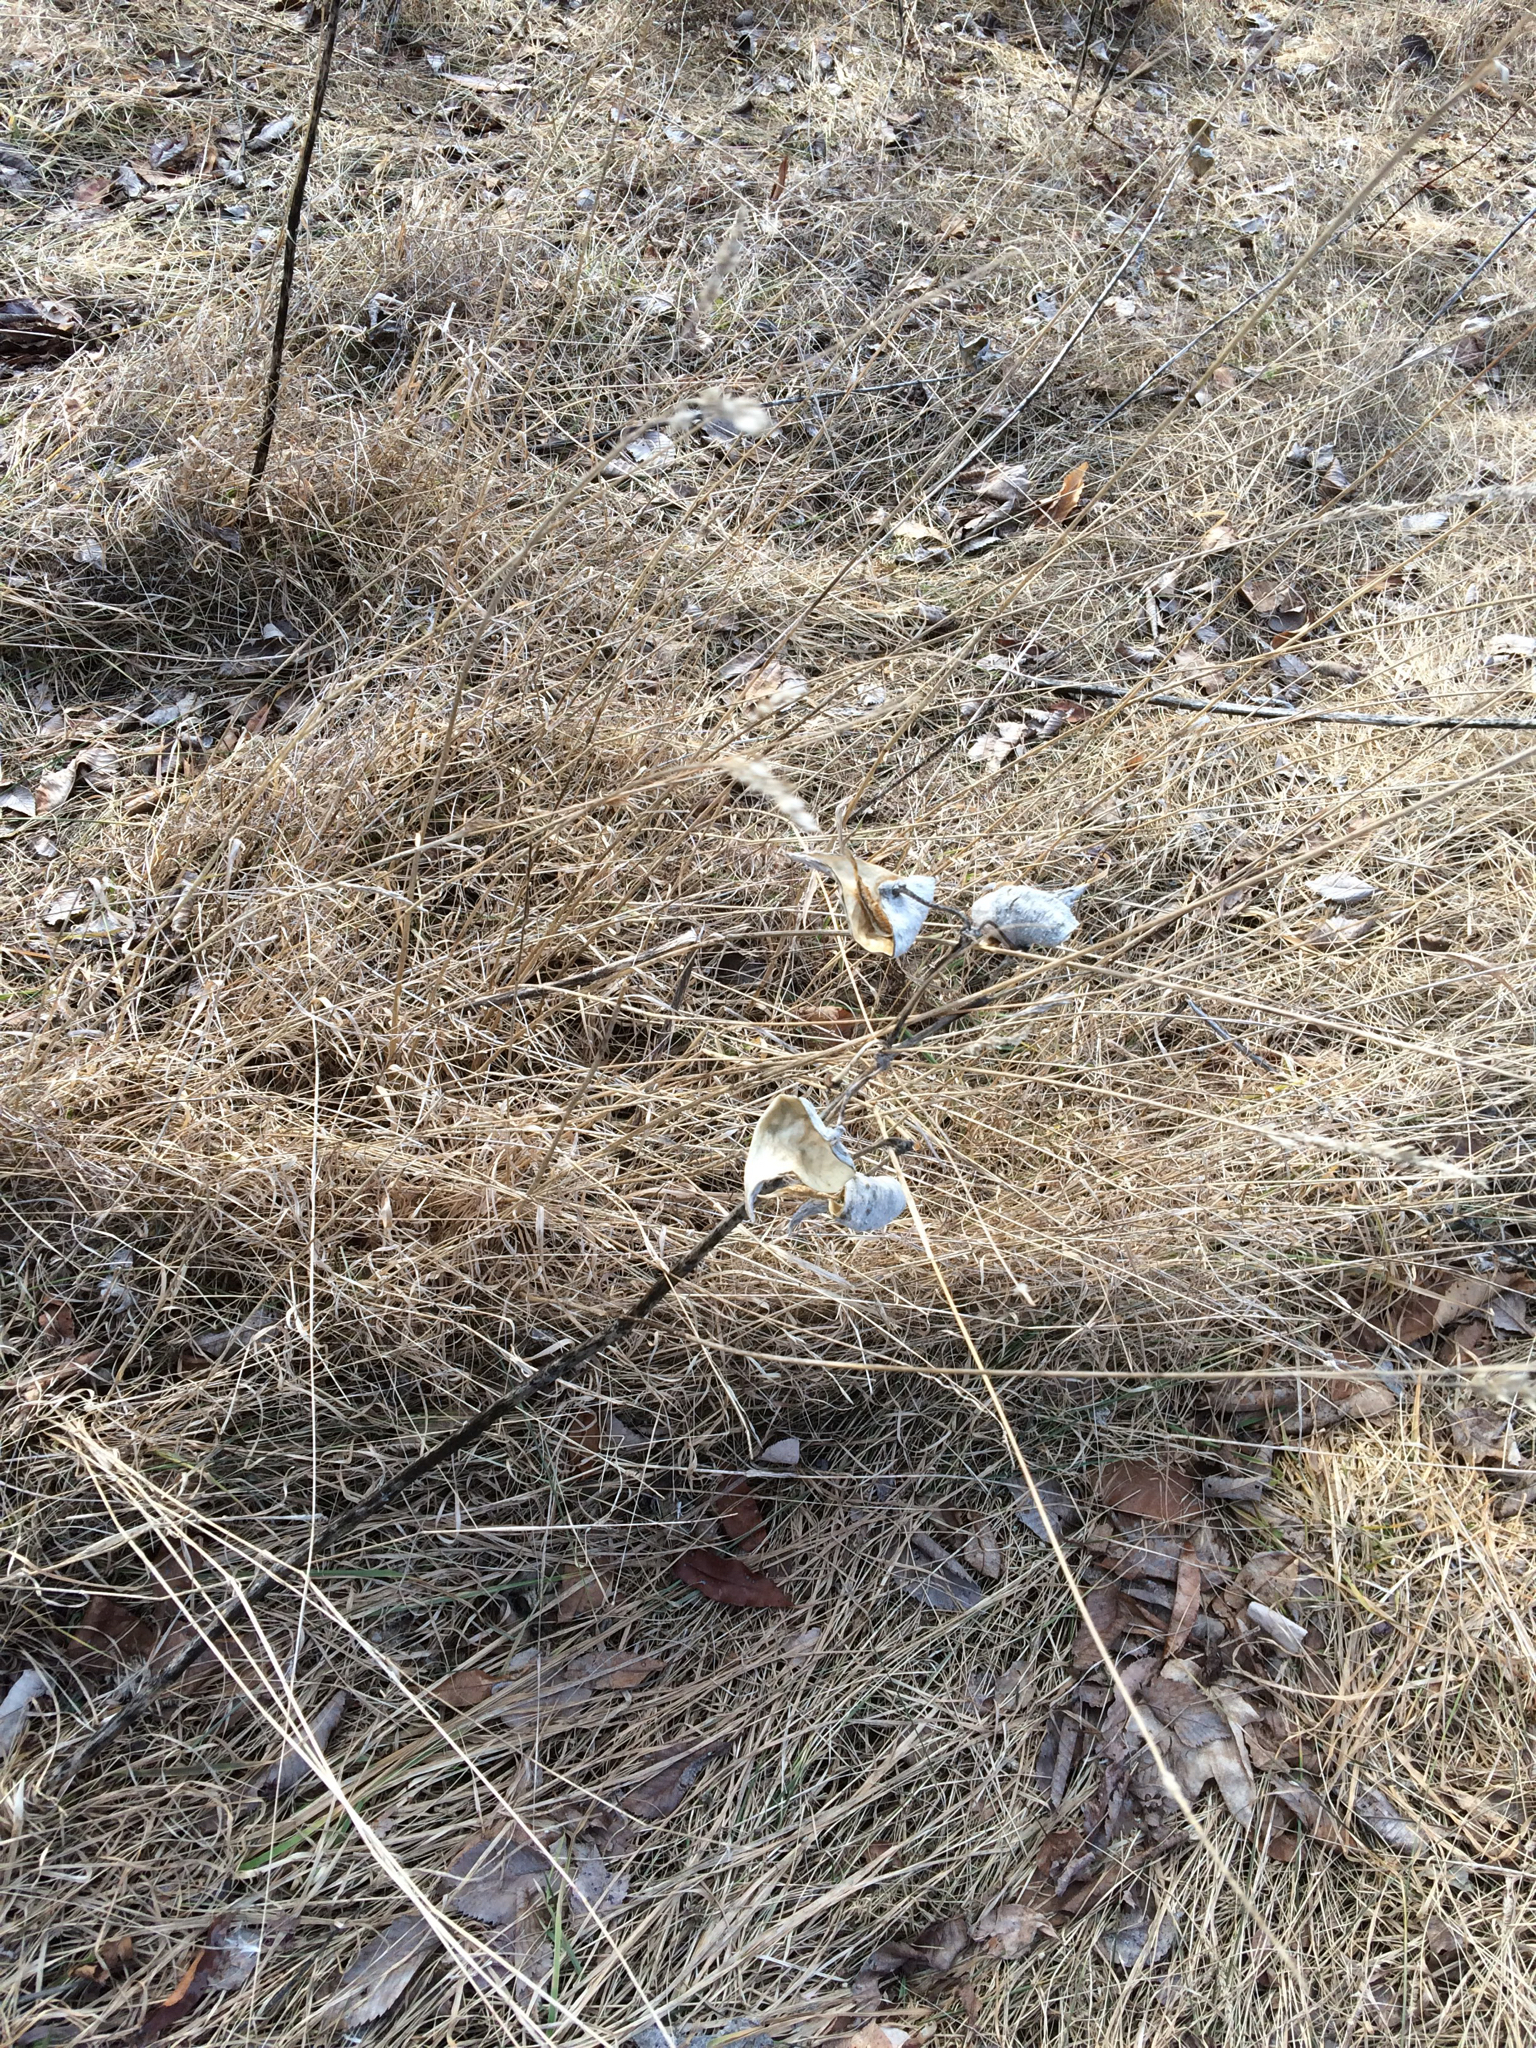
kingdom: Plantae
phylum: Tracheophyta
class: Magnoliopsida
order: Gentianales
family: Apocynaceae
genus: Asclepias
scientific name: Asclepias syriaca
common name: Common milkweed
